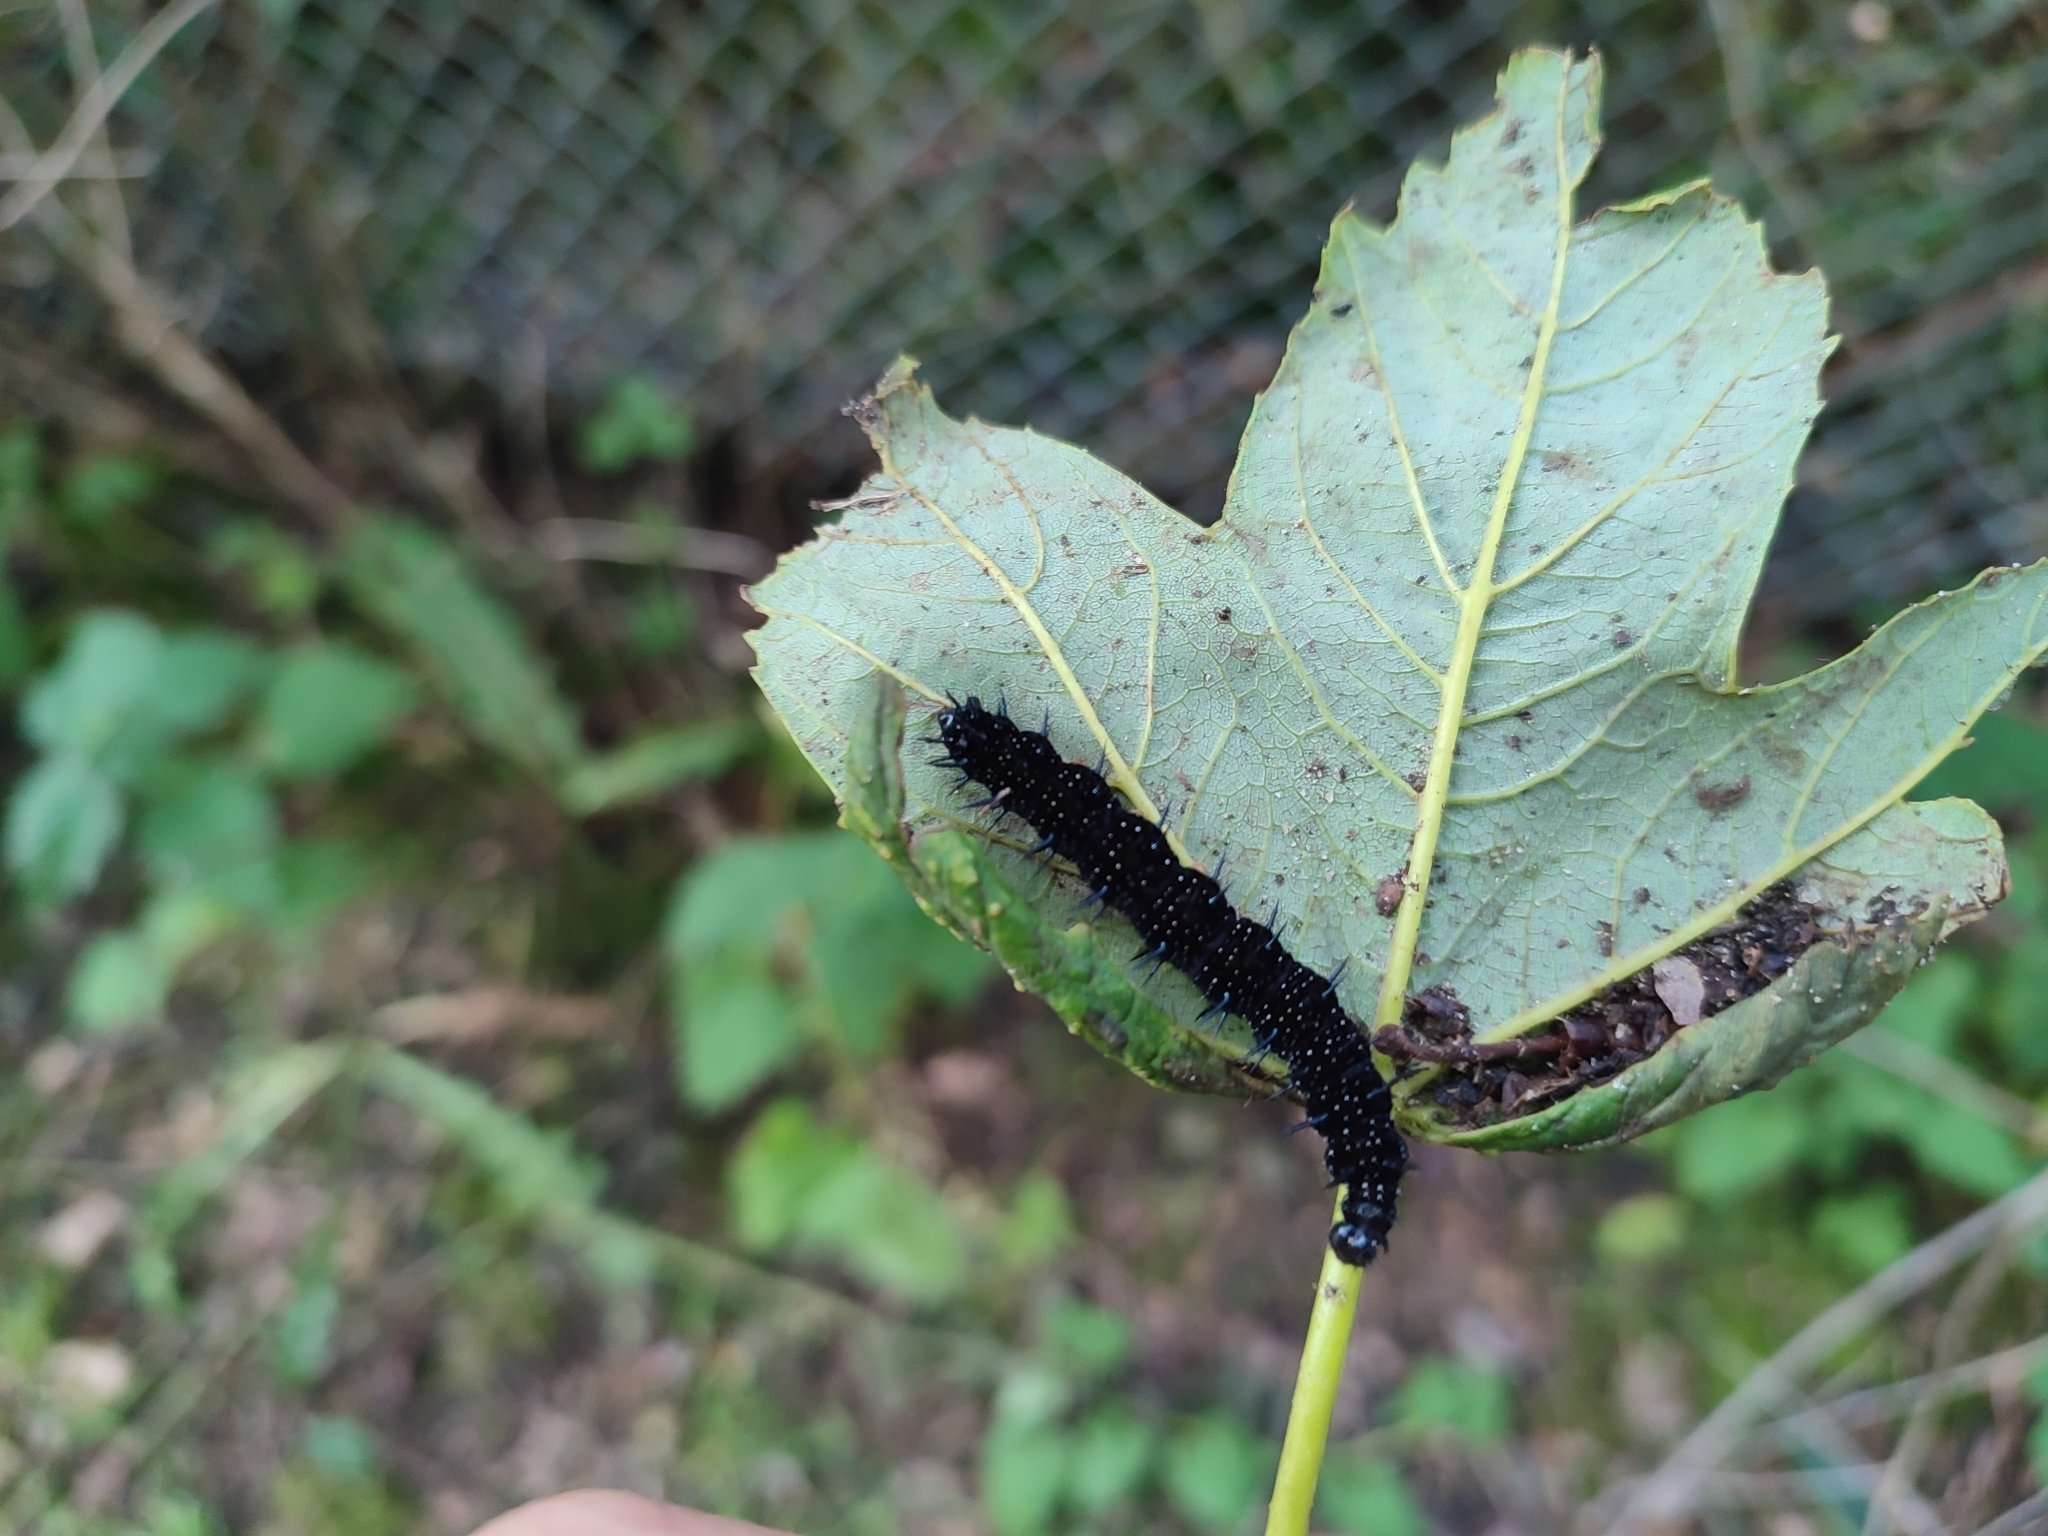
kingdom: Animalia
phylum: Arthropoda
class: Insecta
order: Lepidoptera
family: Nymphalidae
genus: Aglais
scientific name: Aglais io
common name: Peacock
